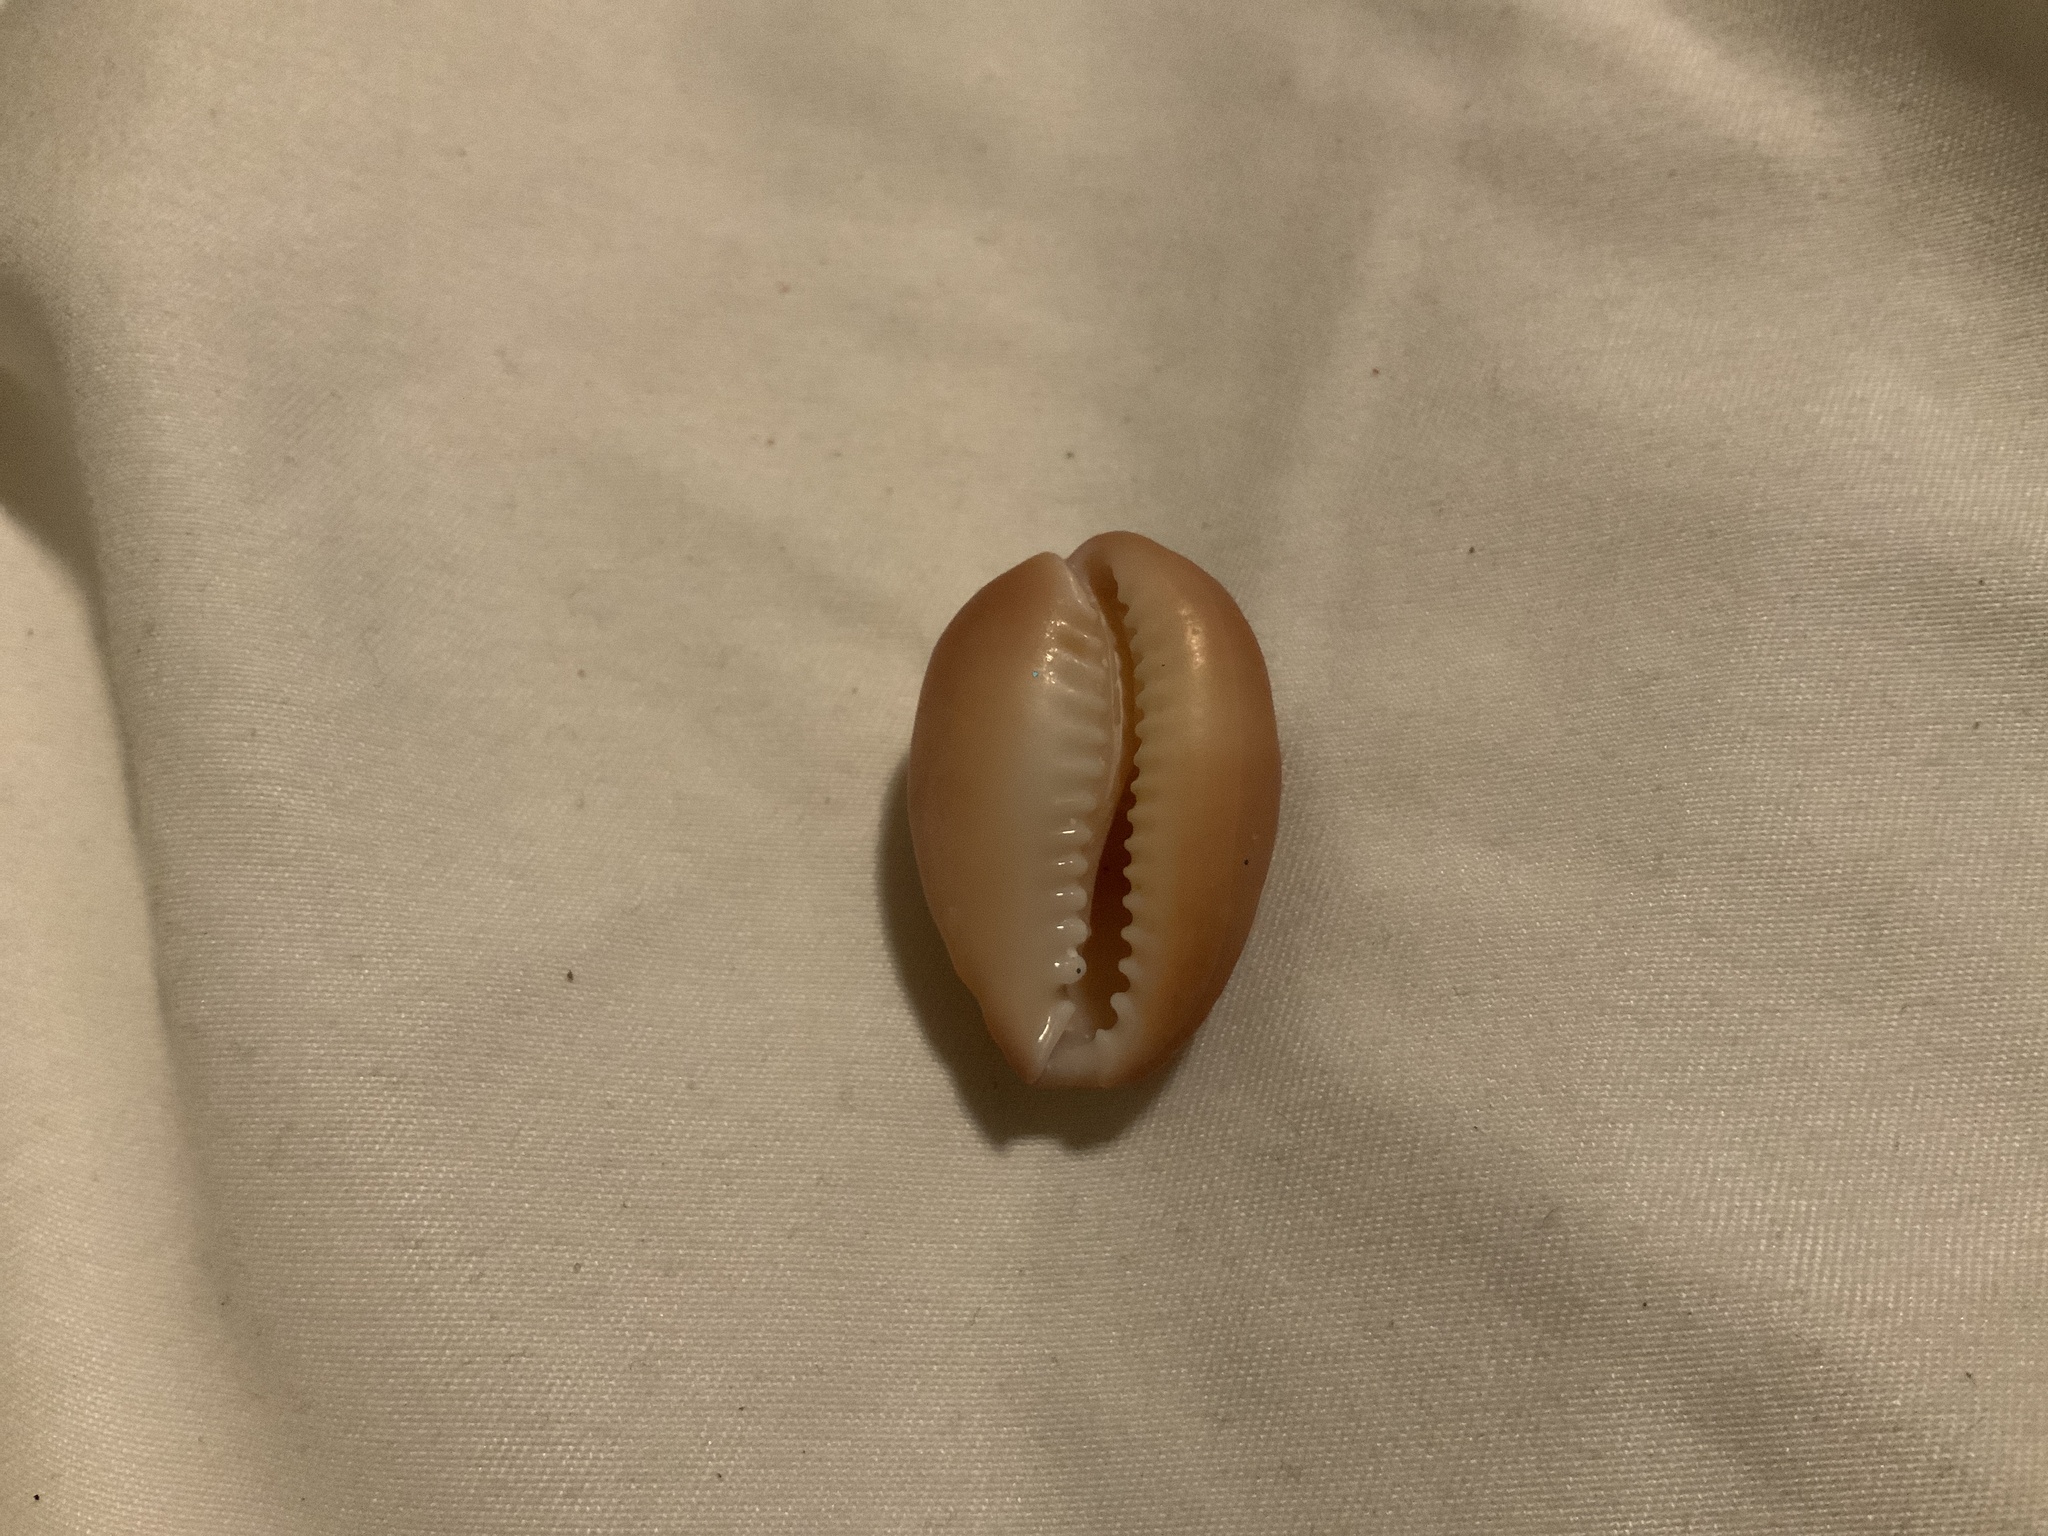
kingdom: Animalia
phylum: Mollusca
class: Gastropoda
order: Littorinimorpha
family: Cypraeidae
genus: Monetaria
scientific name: Monetaria caputophidii
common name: Snake's head cowry
